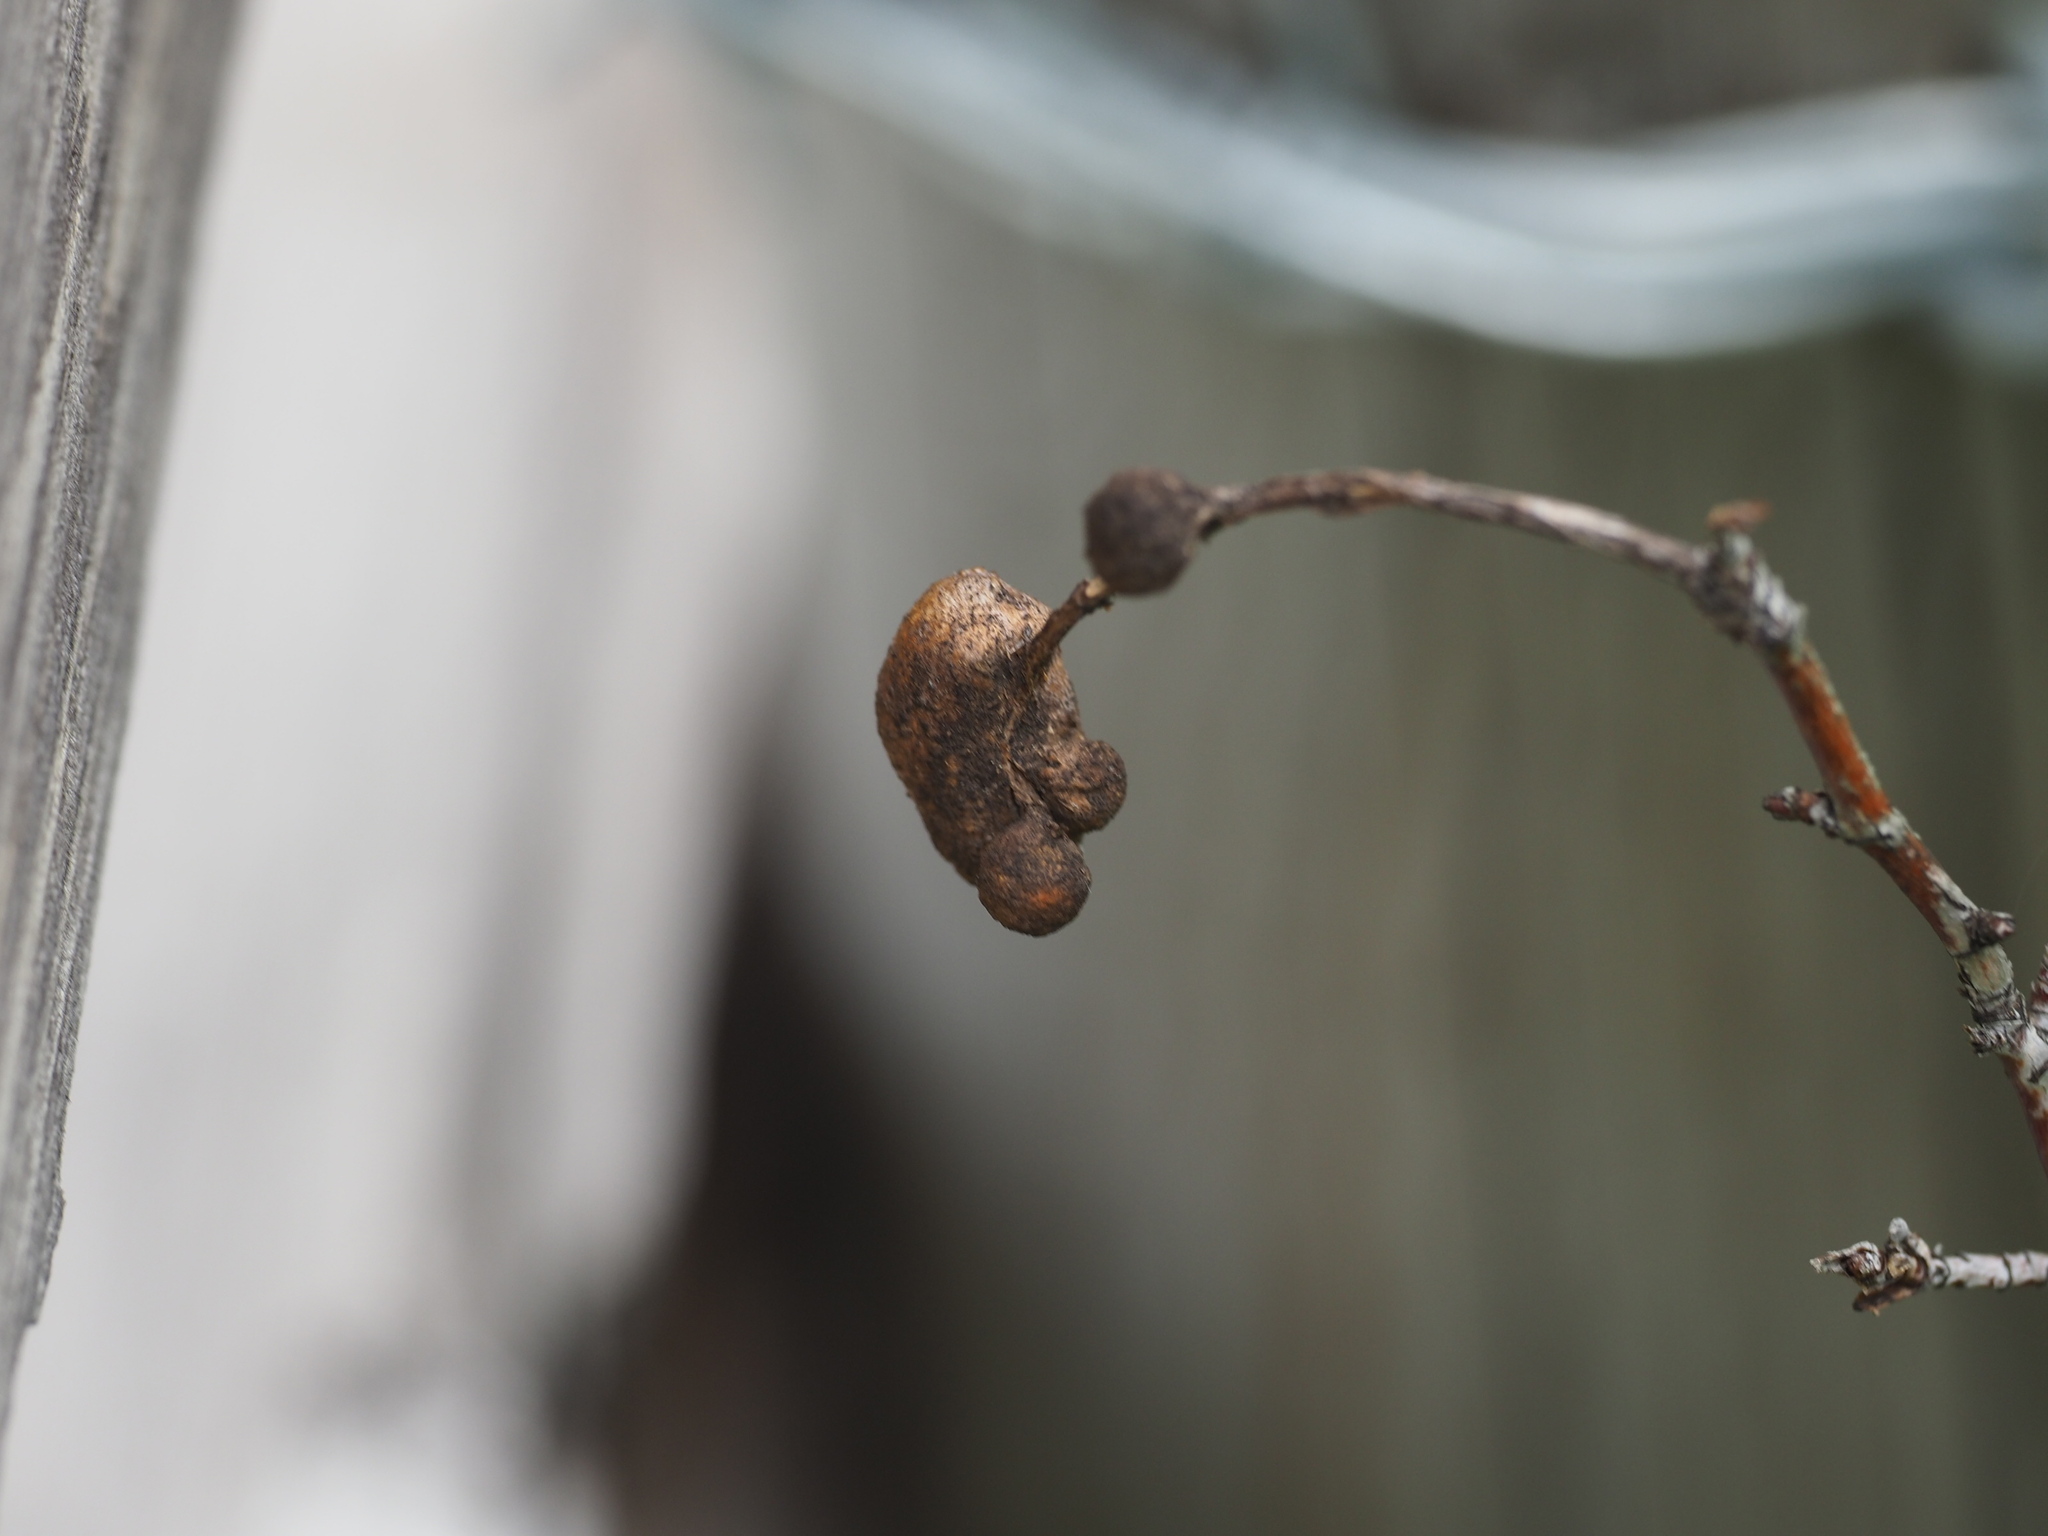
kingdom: Animalia
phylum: Arthropoda
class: Insecta
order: Hymenoptera
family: Cynipidae
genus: Diplolepis
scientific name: Diplolepis variabilis
